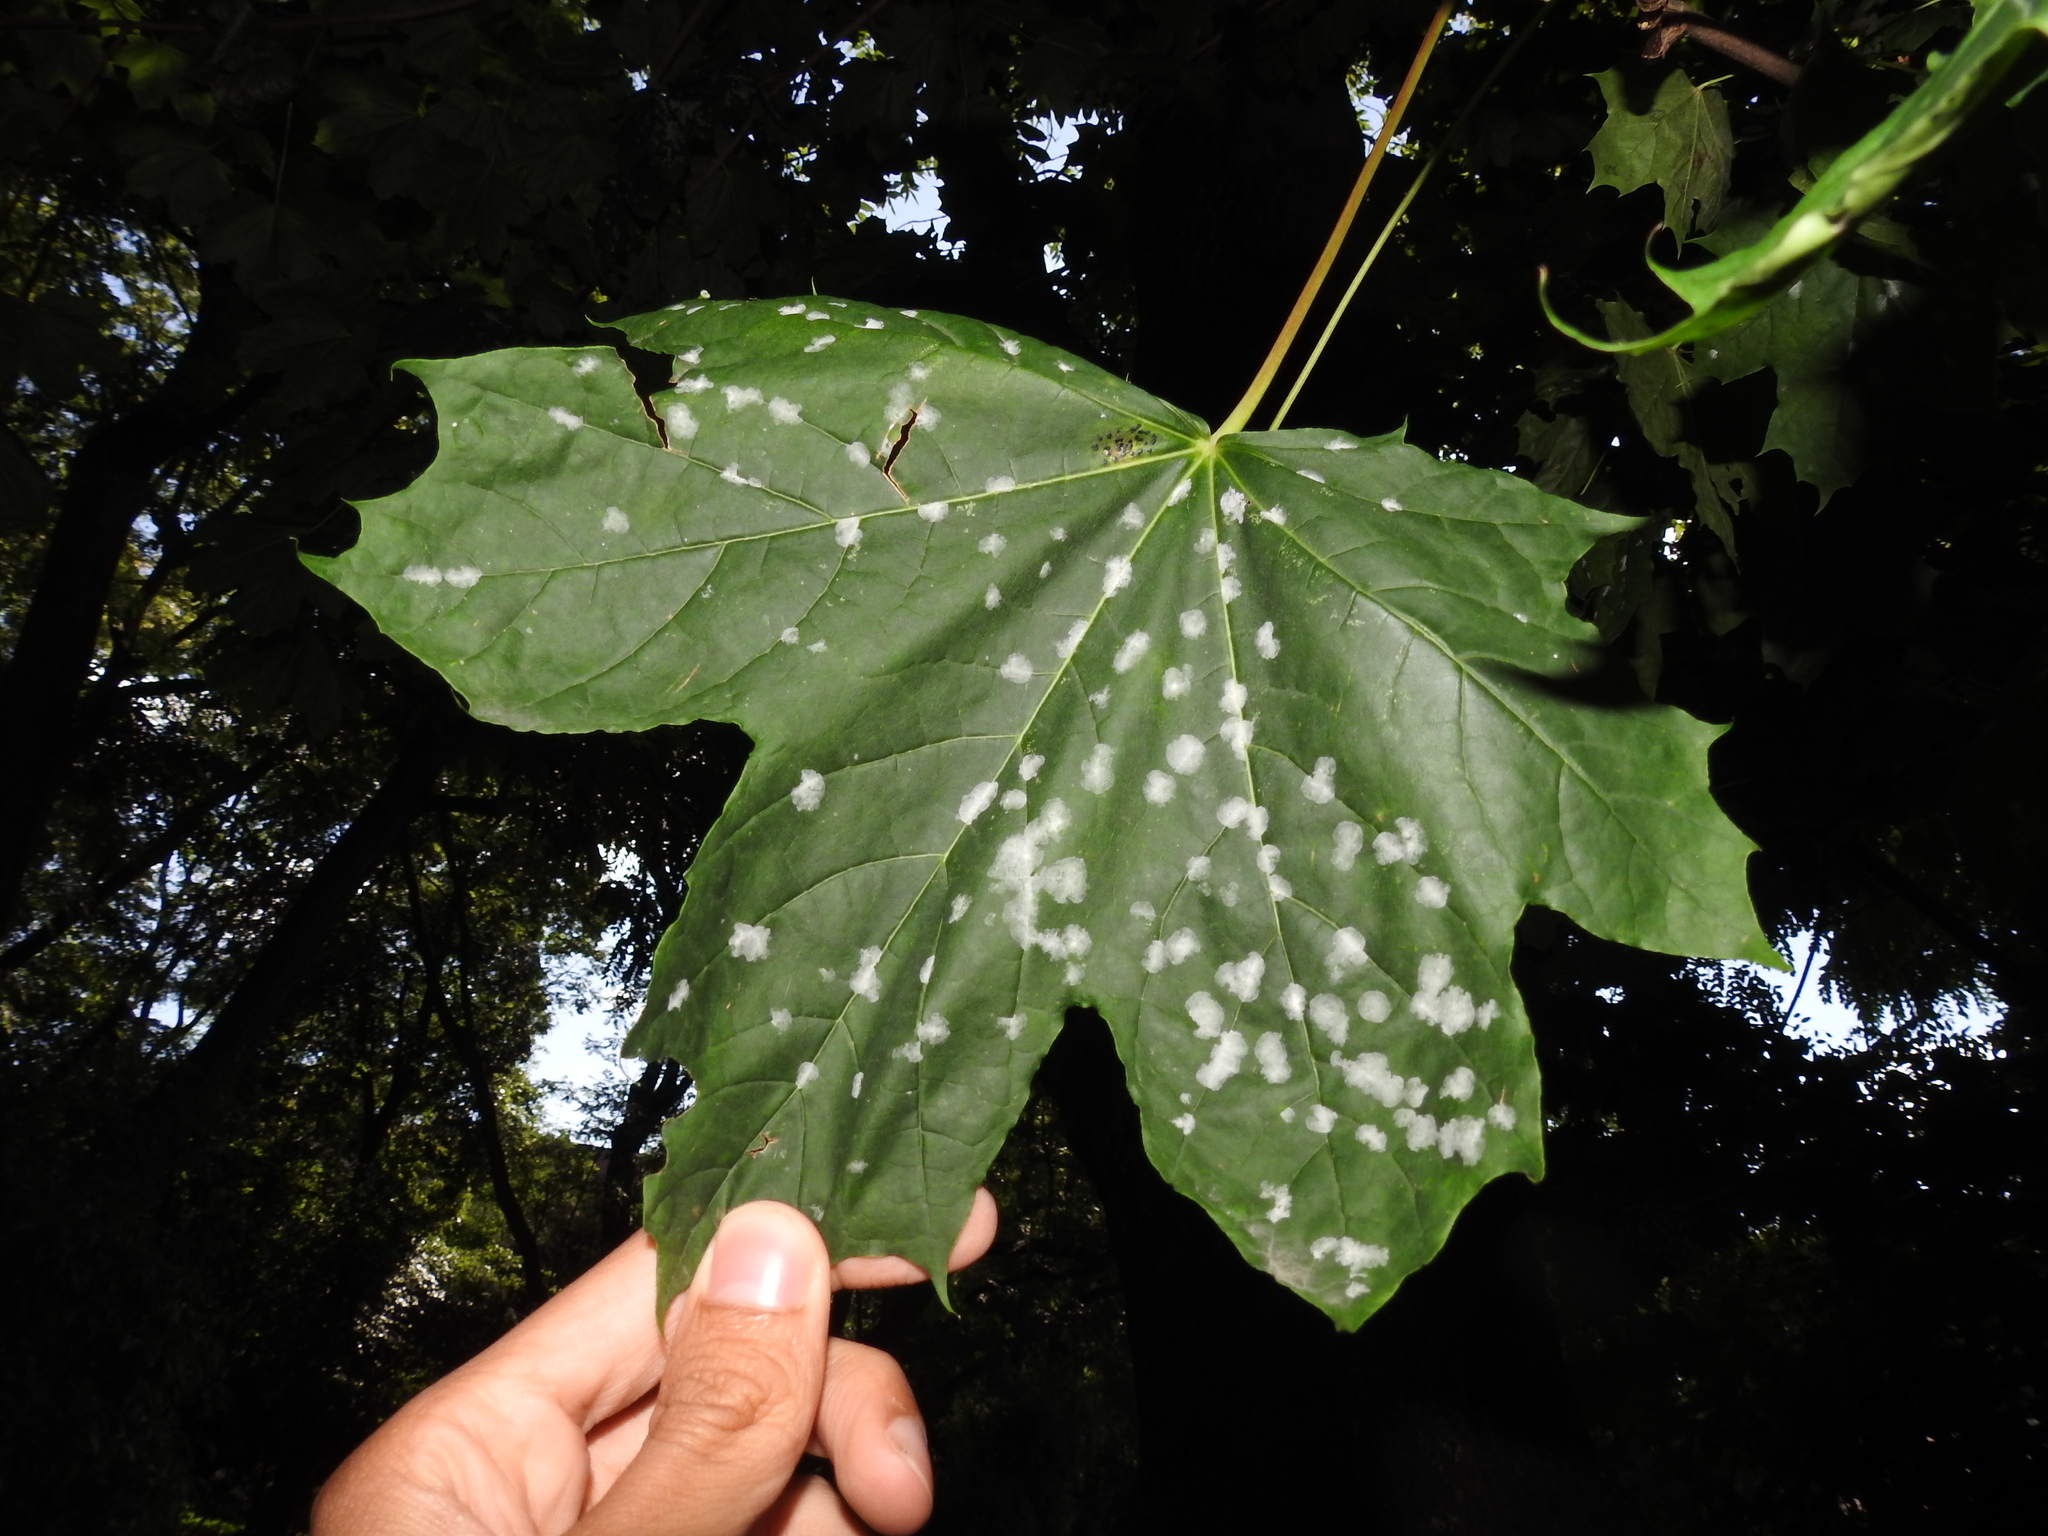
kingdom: Fungi
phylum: Ascomycota
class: Leotiomycetes
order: Helotiales
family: Erysiphaceae
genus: Sawadaea
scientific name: Sawadaea tulasnei
